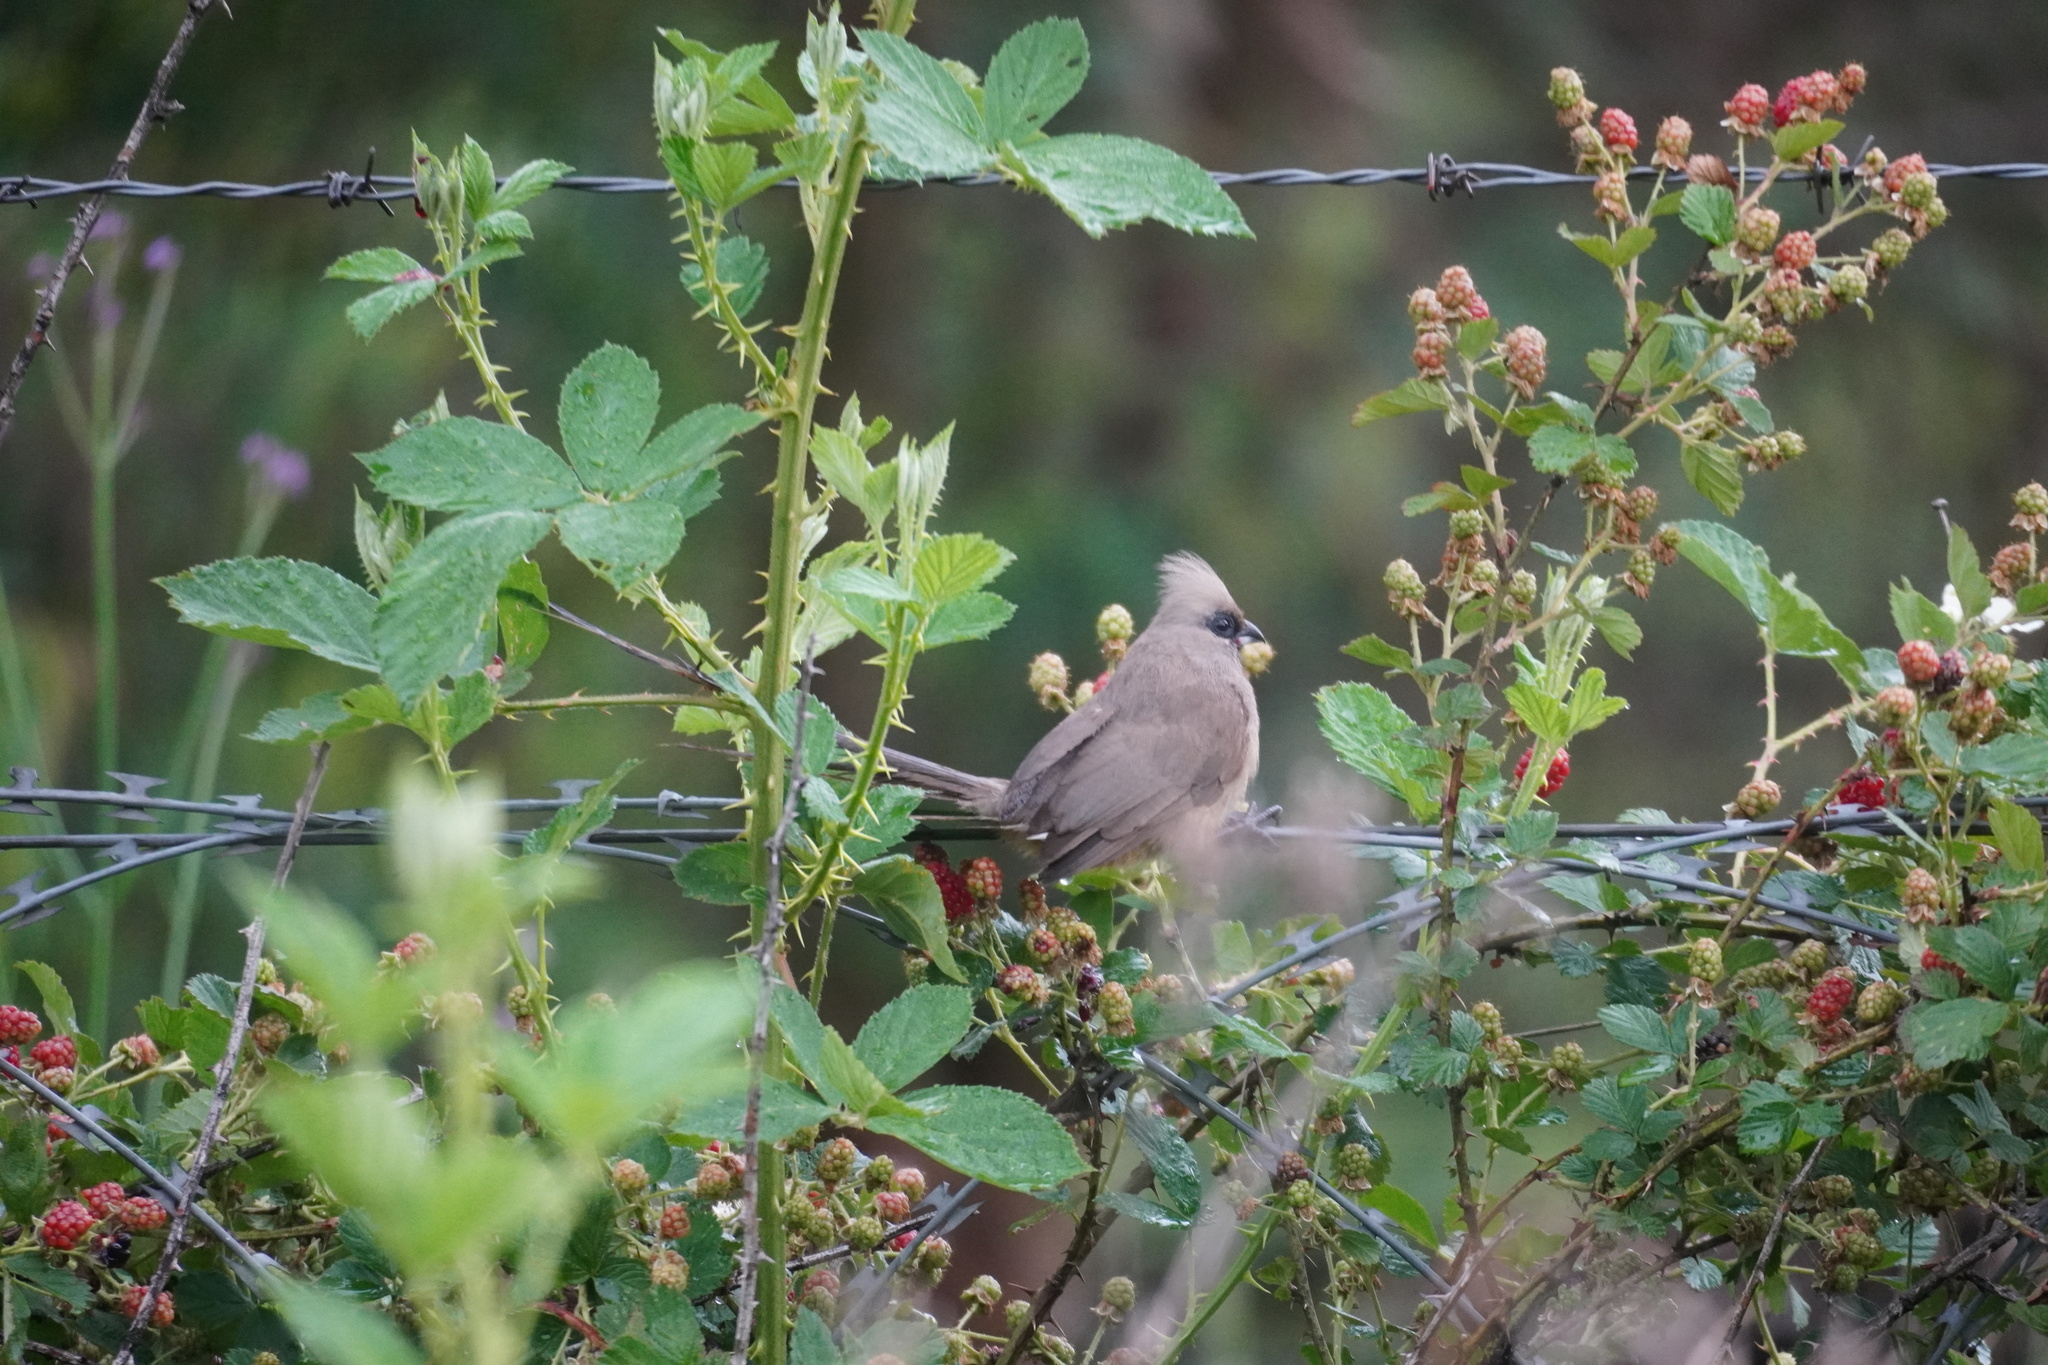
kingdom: Animalia
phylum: Chordata
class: Aves
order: Coliiformes
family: Coliidae
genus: Colius
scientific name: Colius striatus
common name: Speckled mousebird
